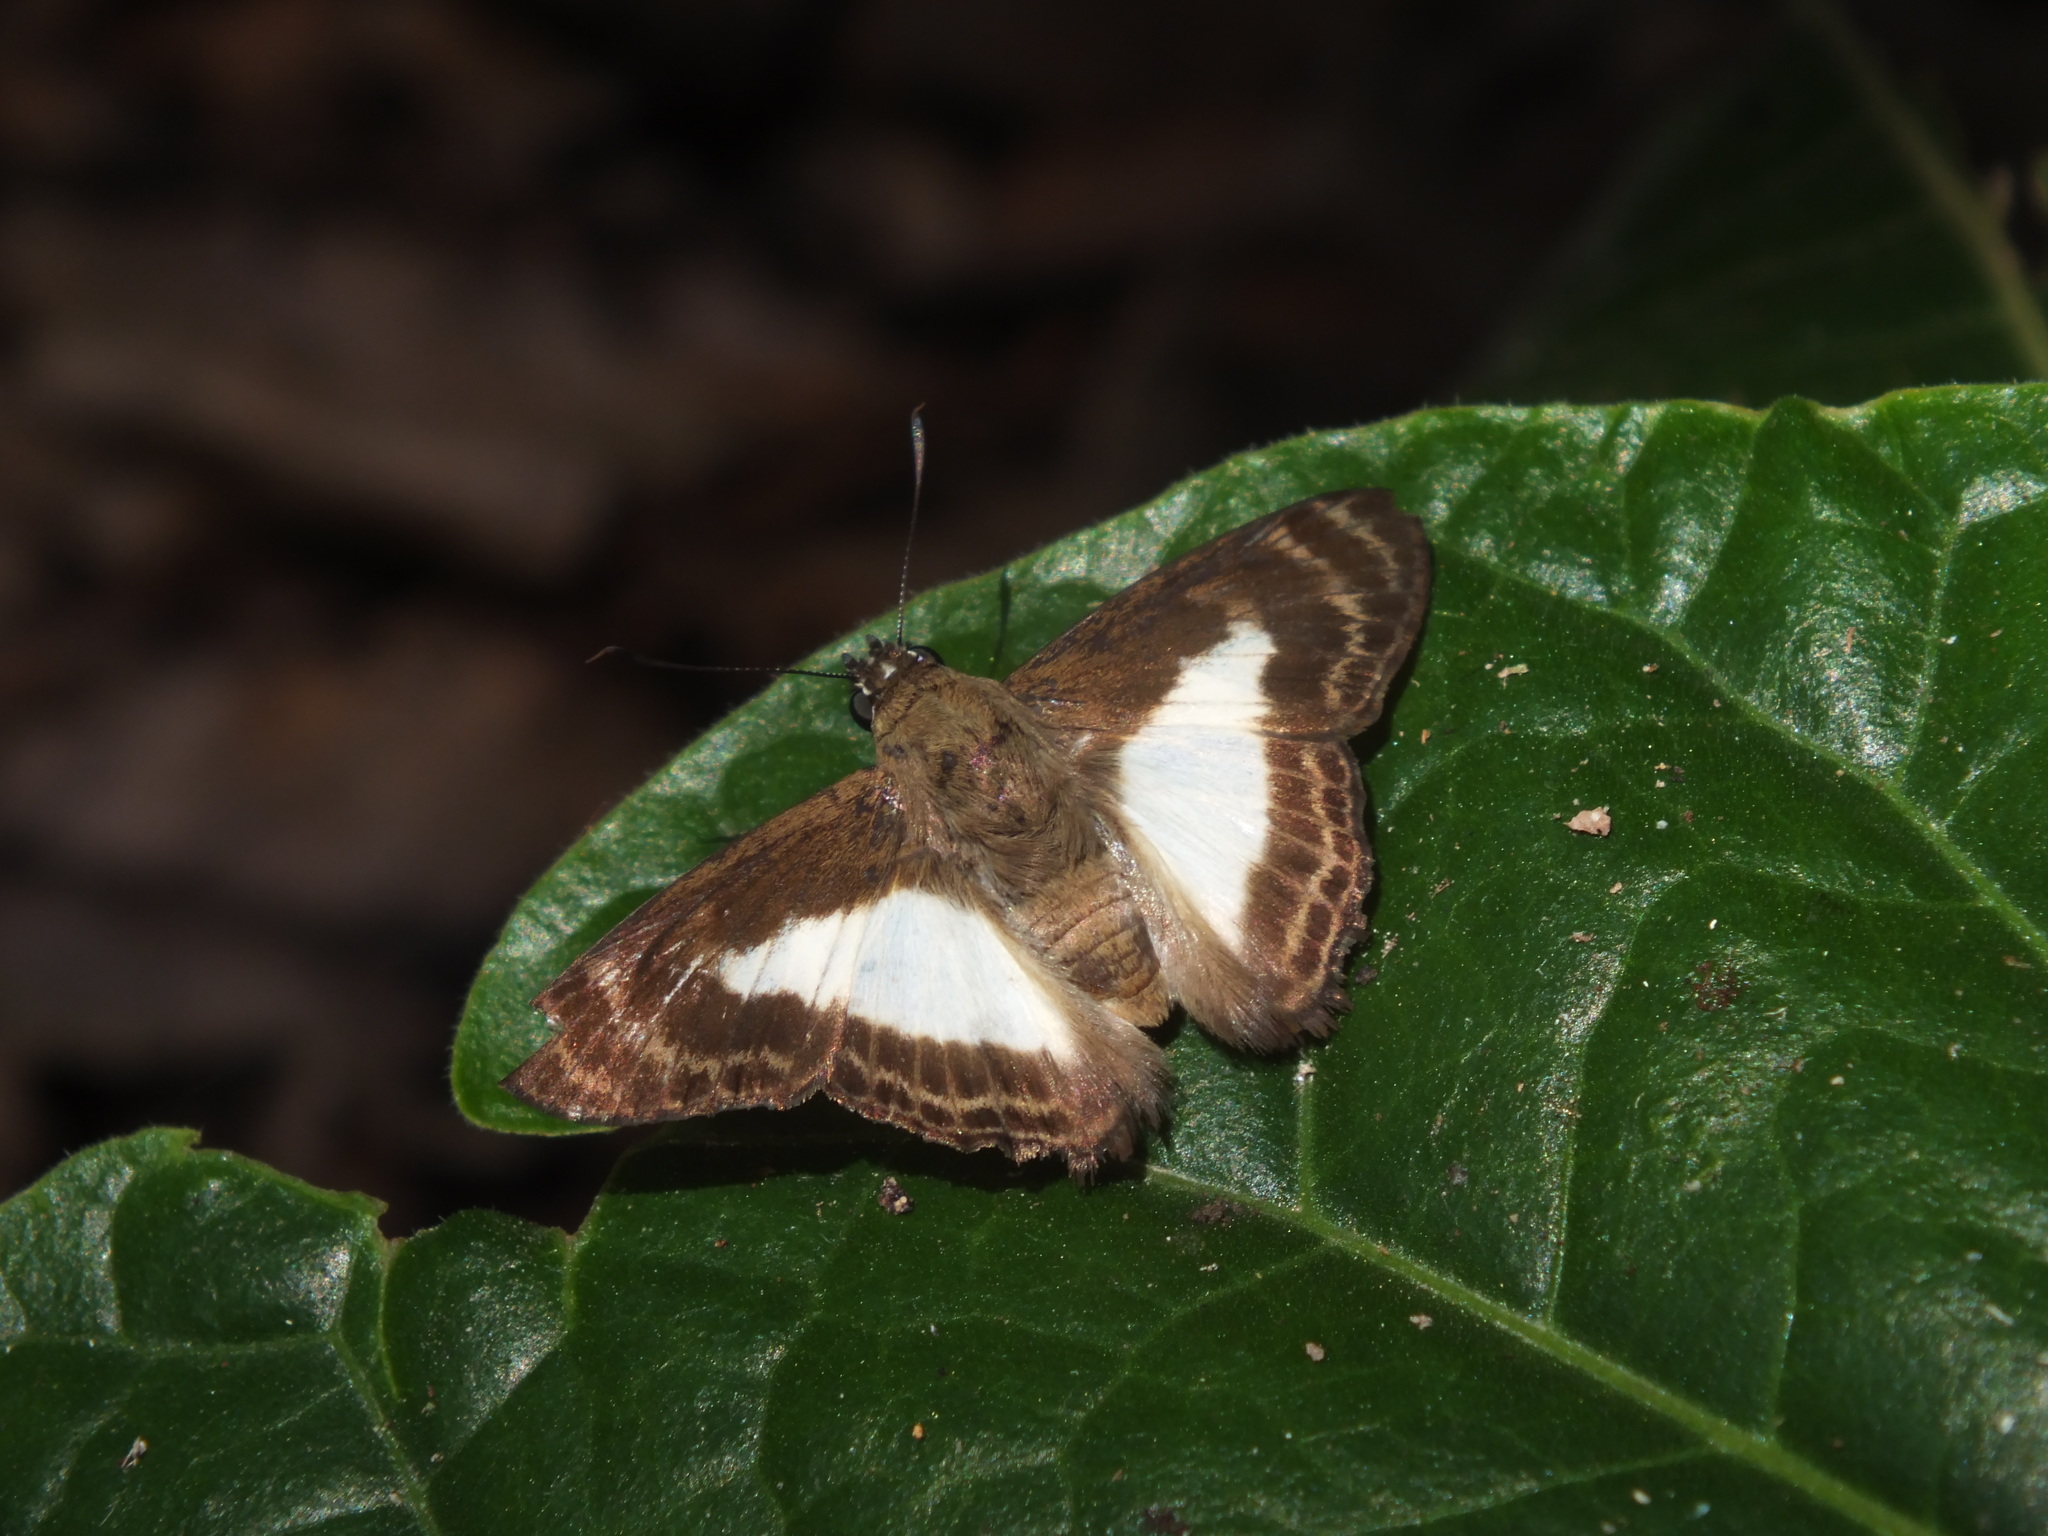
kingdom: Animalia
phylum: Arthropoda
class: Insecta
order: Lepidoptera
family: Hesperiidae
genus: Sophista
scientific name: Sophista aristoteles
